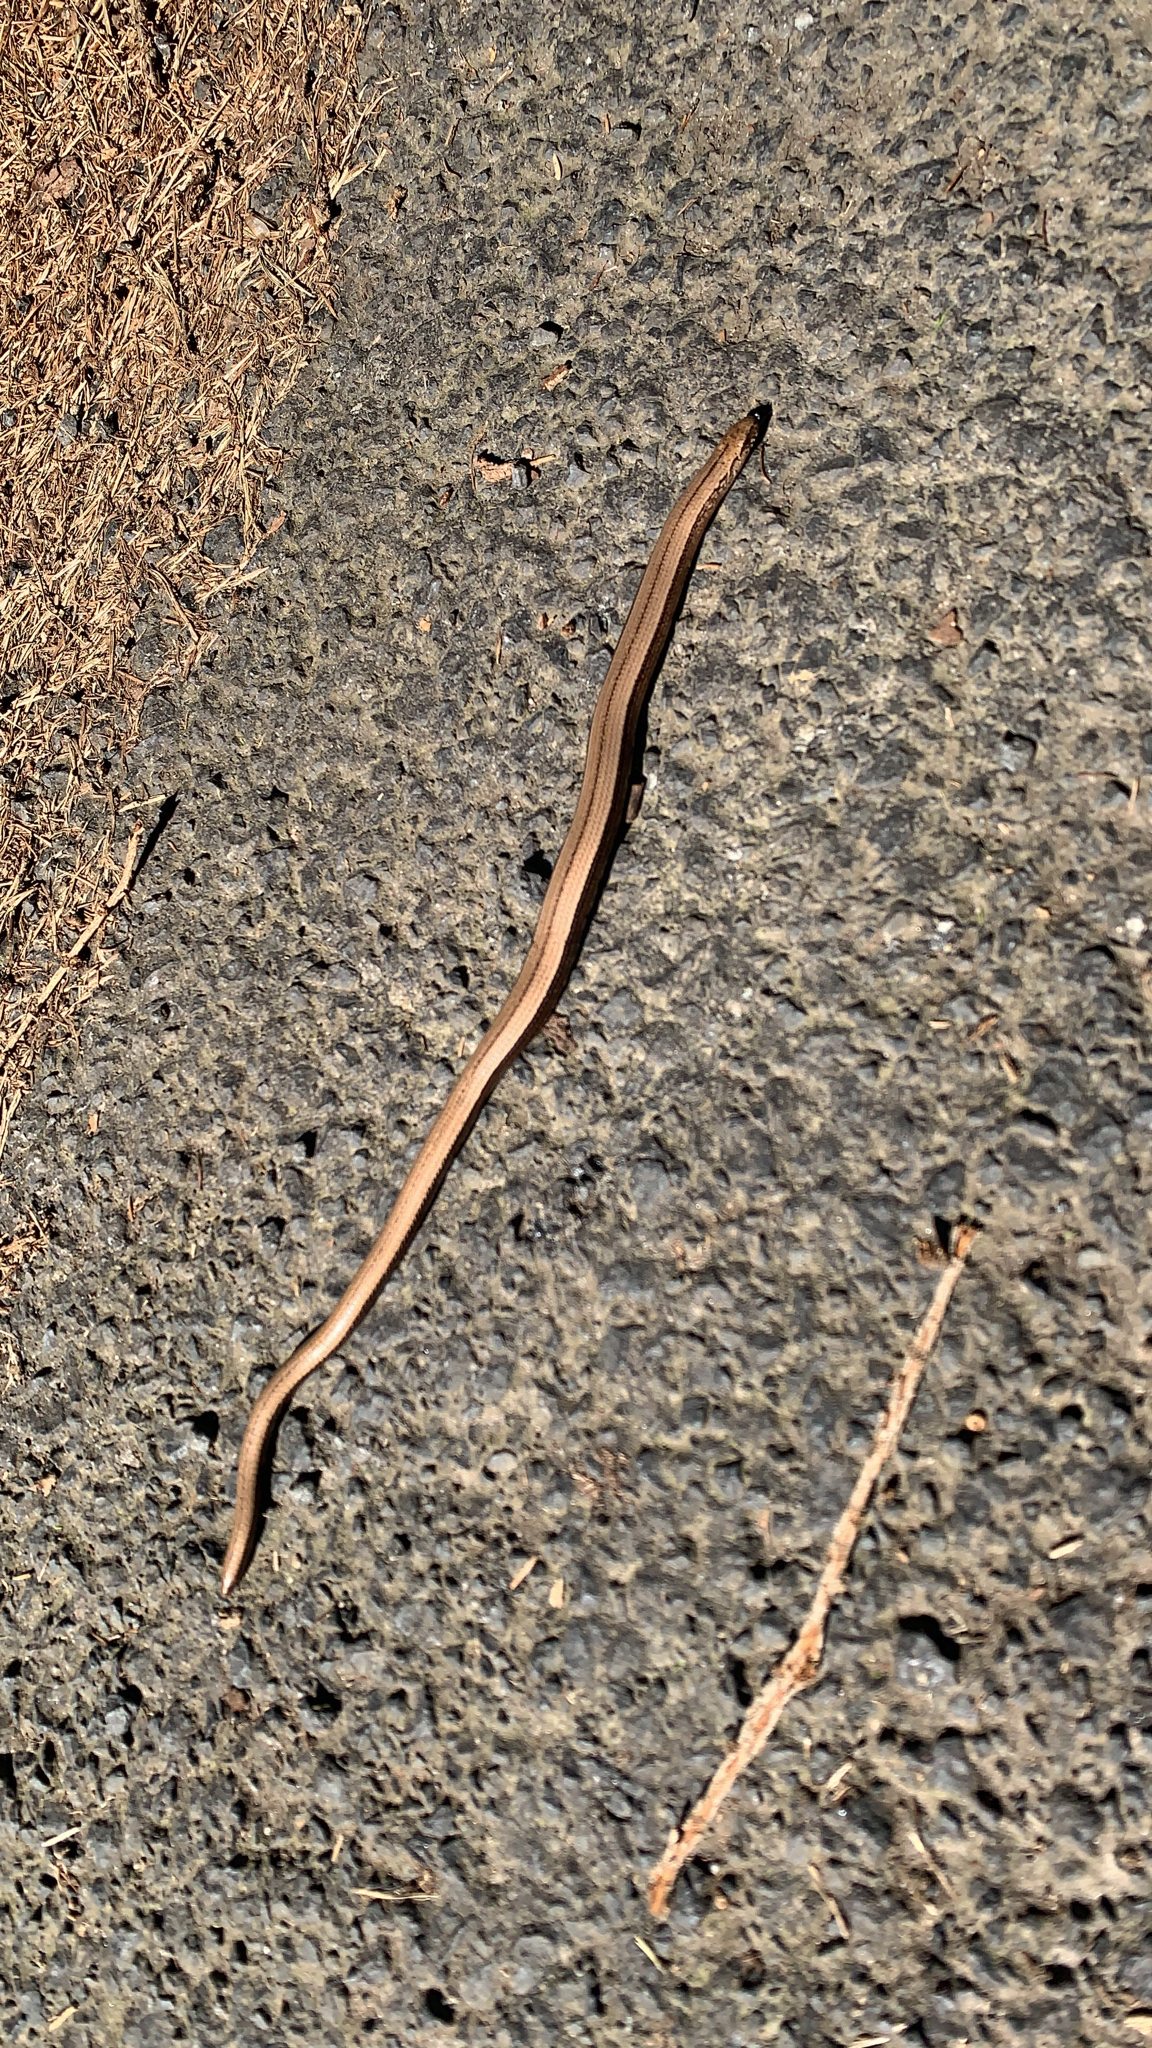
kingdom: Animalia
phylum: Chordata
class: Squamata
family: Anguidae
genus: Anguis
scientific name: Anguis fragilis
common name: Slow worm
